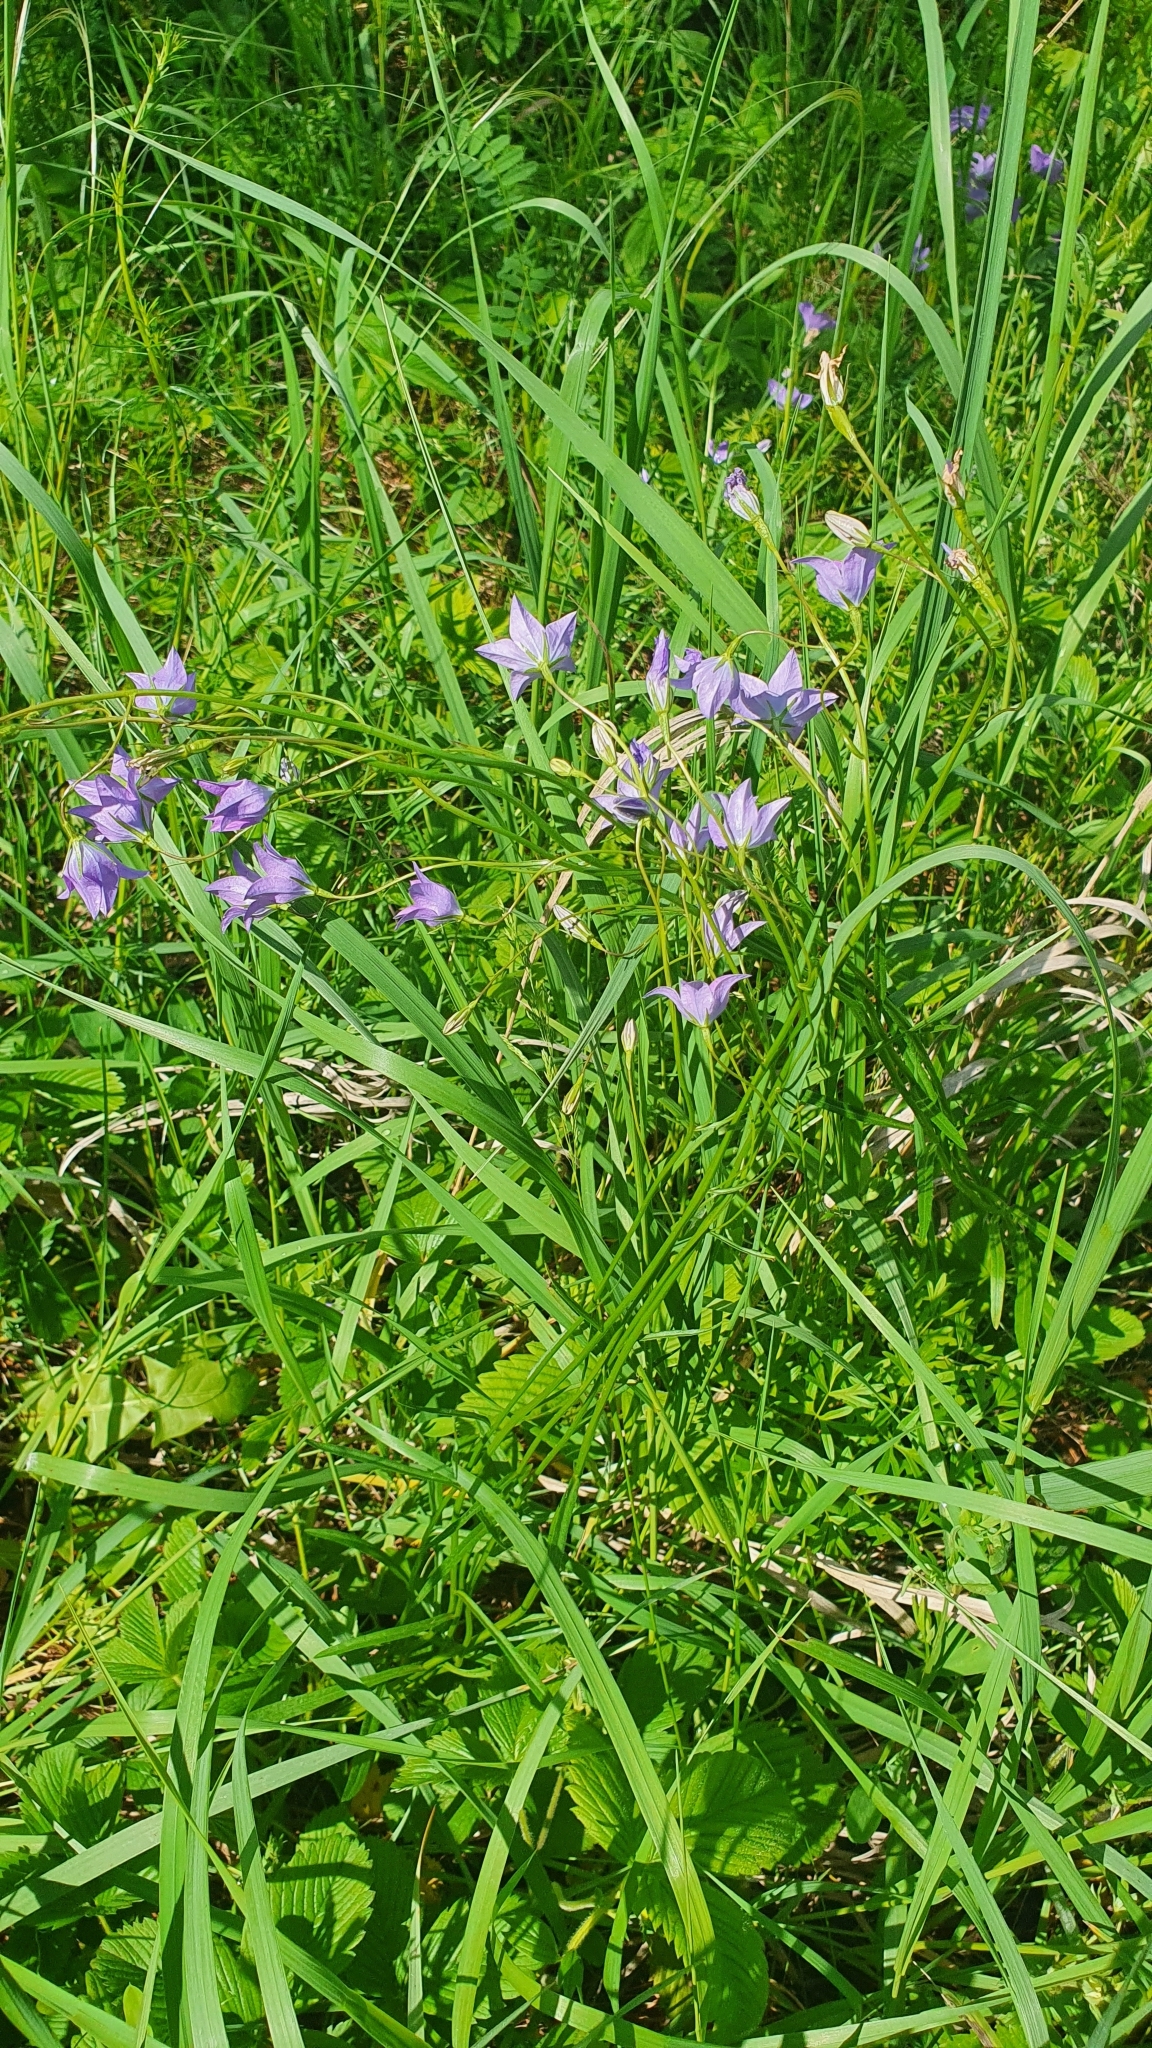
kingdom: Plantae
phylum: Tracheophyta
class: Magnoliopsida
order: Asterales
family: Campanulaceae
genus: Campanula
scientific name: Campanula stevenii
